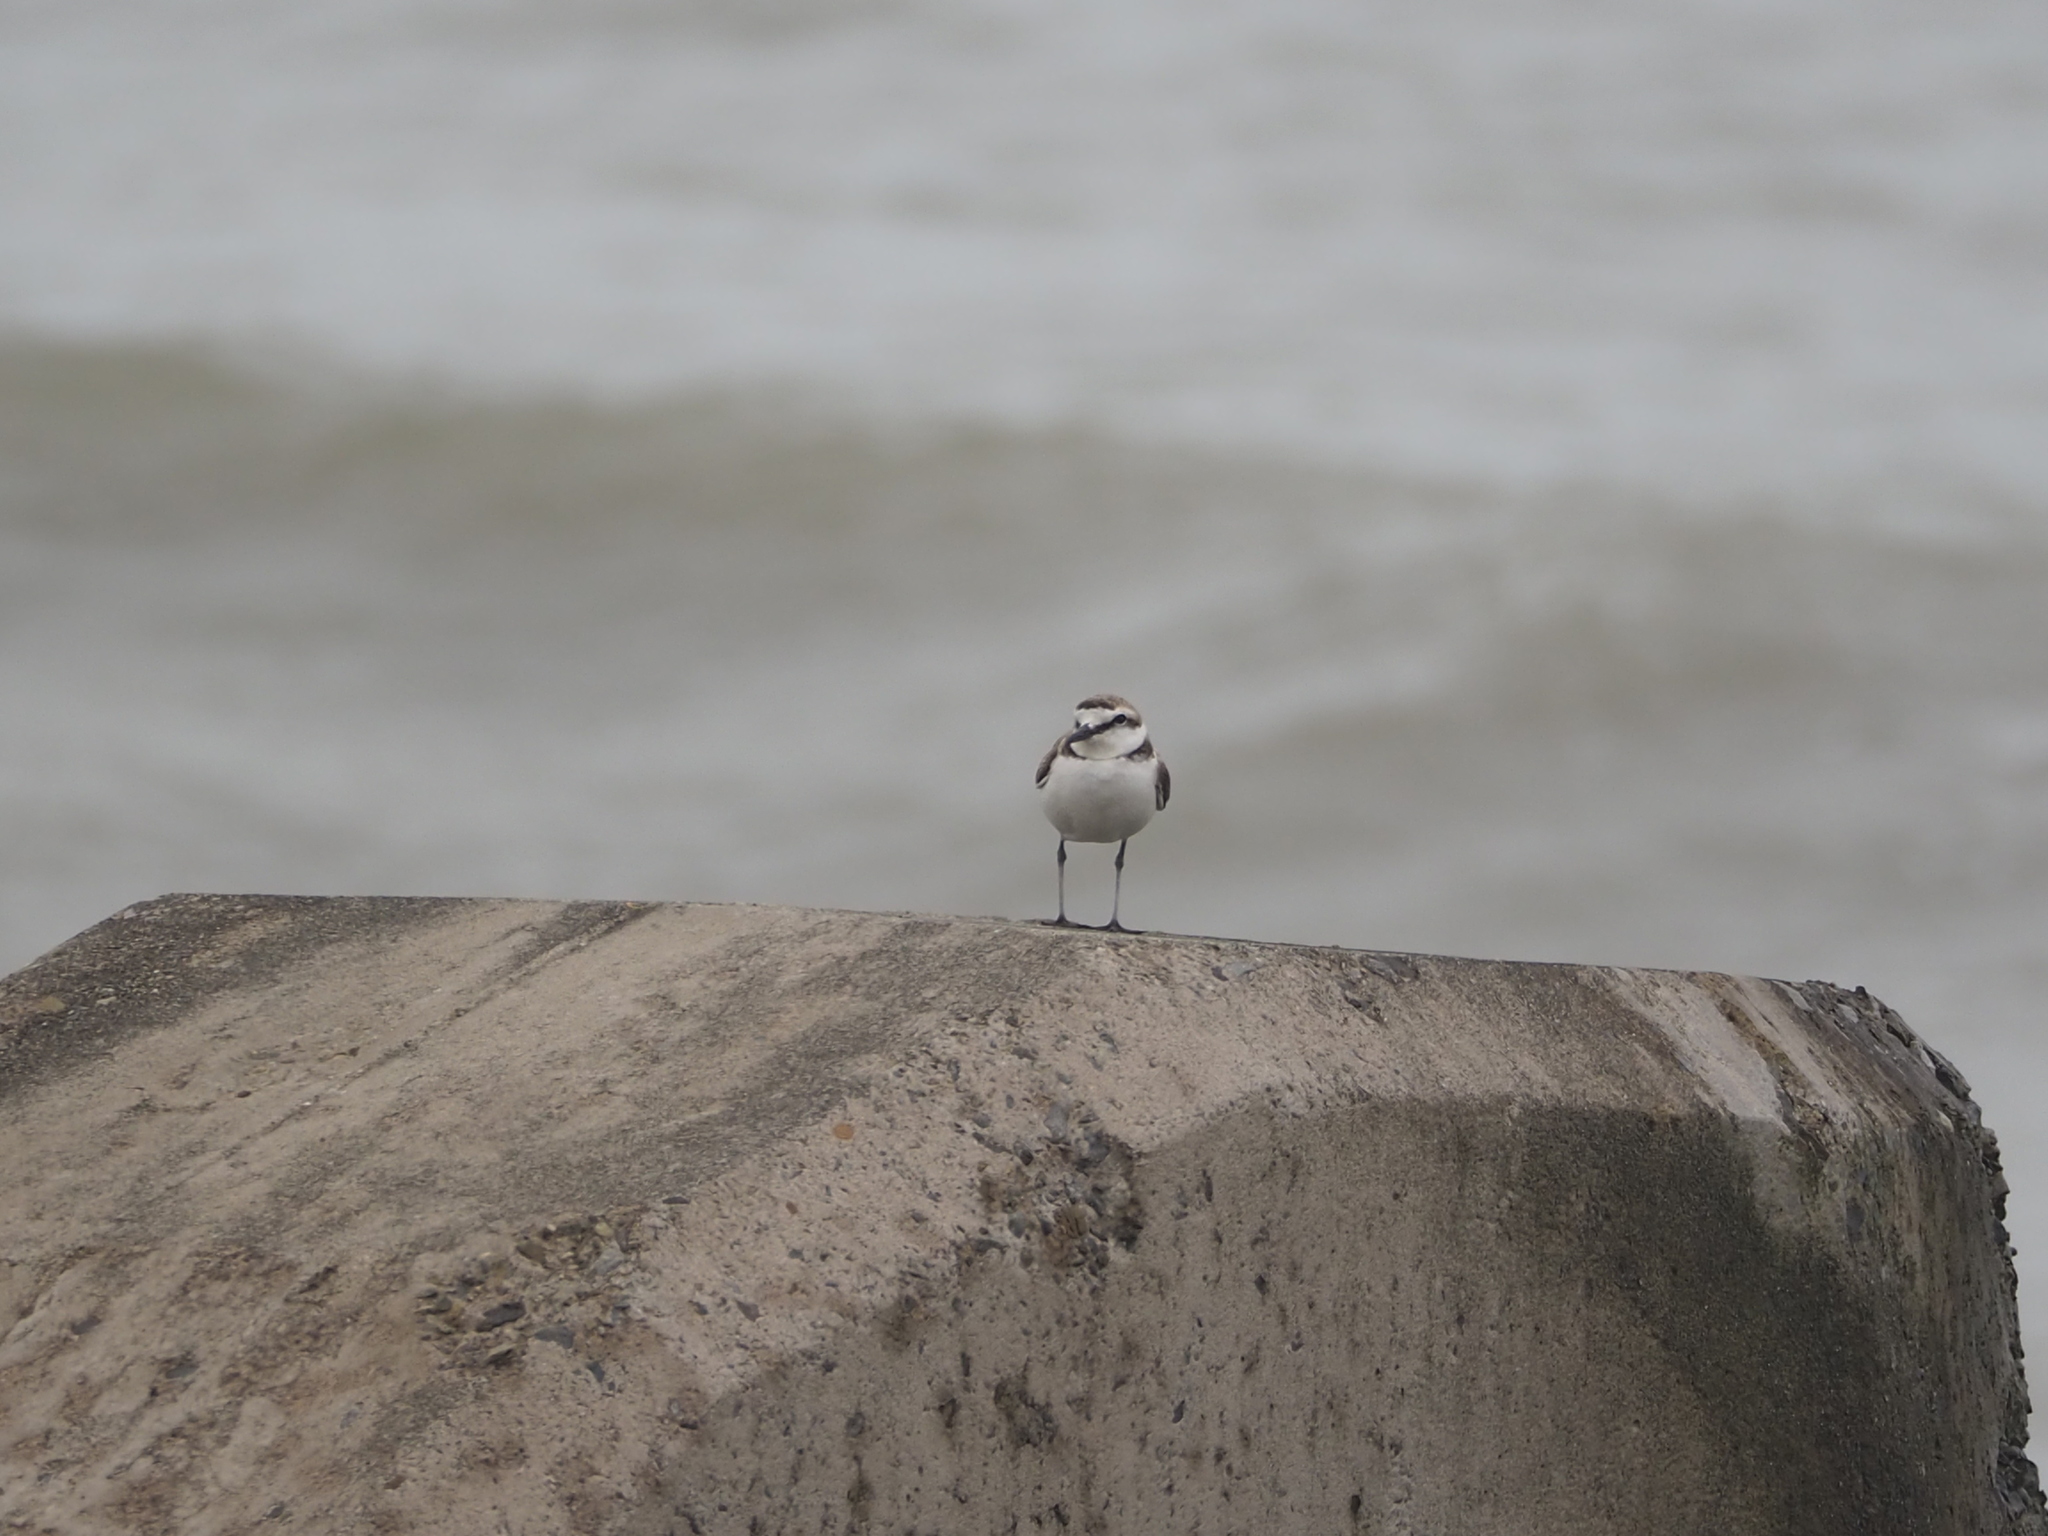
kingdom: Animalia
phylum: Chordata
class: Aves
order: Charadriiformes
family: Charadriidae
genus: Charadrius
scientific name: Charadrius alexandrinus
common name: Kentish plover
